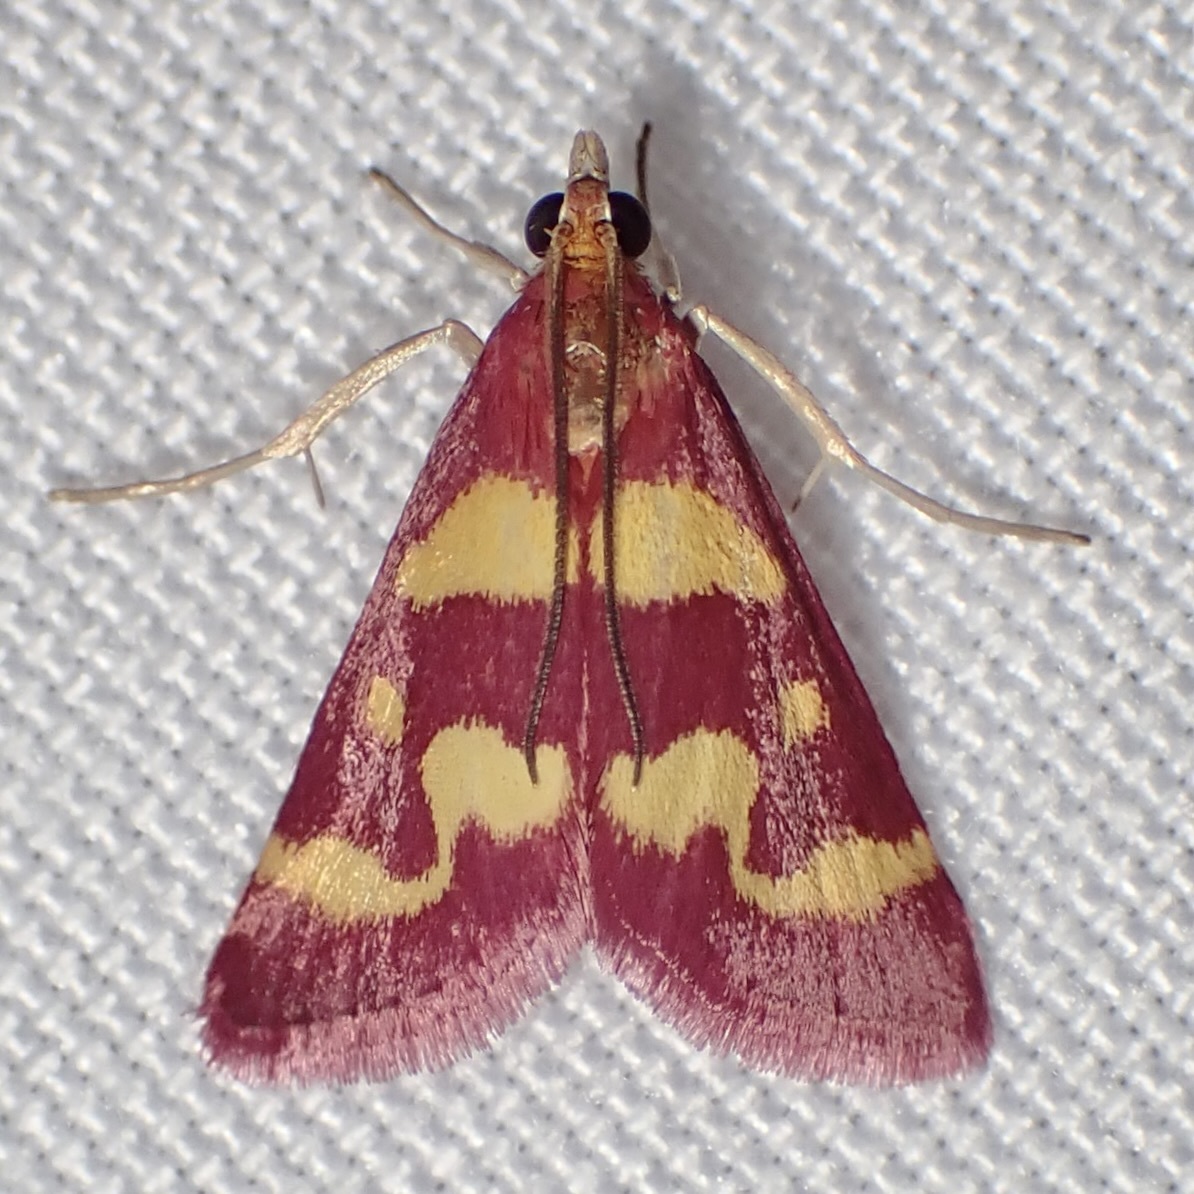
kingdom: Animalia
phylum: Arthropoda
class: Insecta
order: Lepidoptera
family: Crambidae
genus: Pyrausta
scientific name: Pyrausta tyralis
